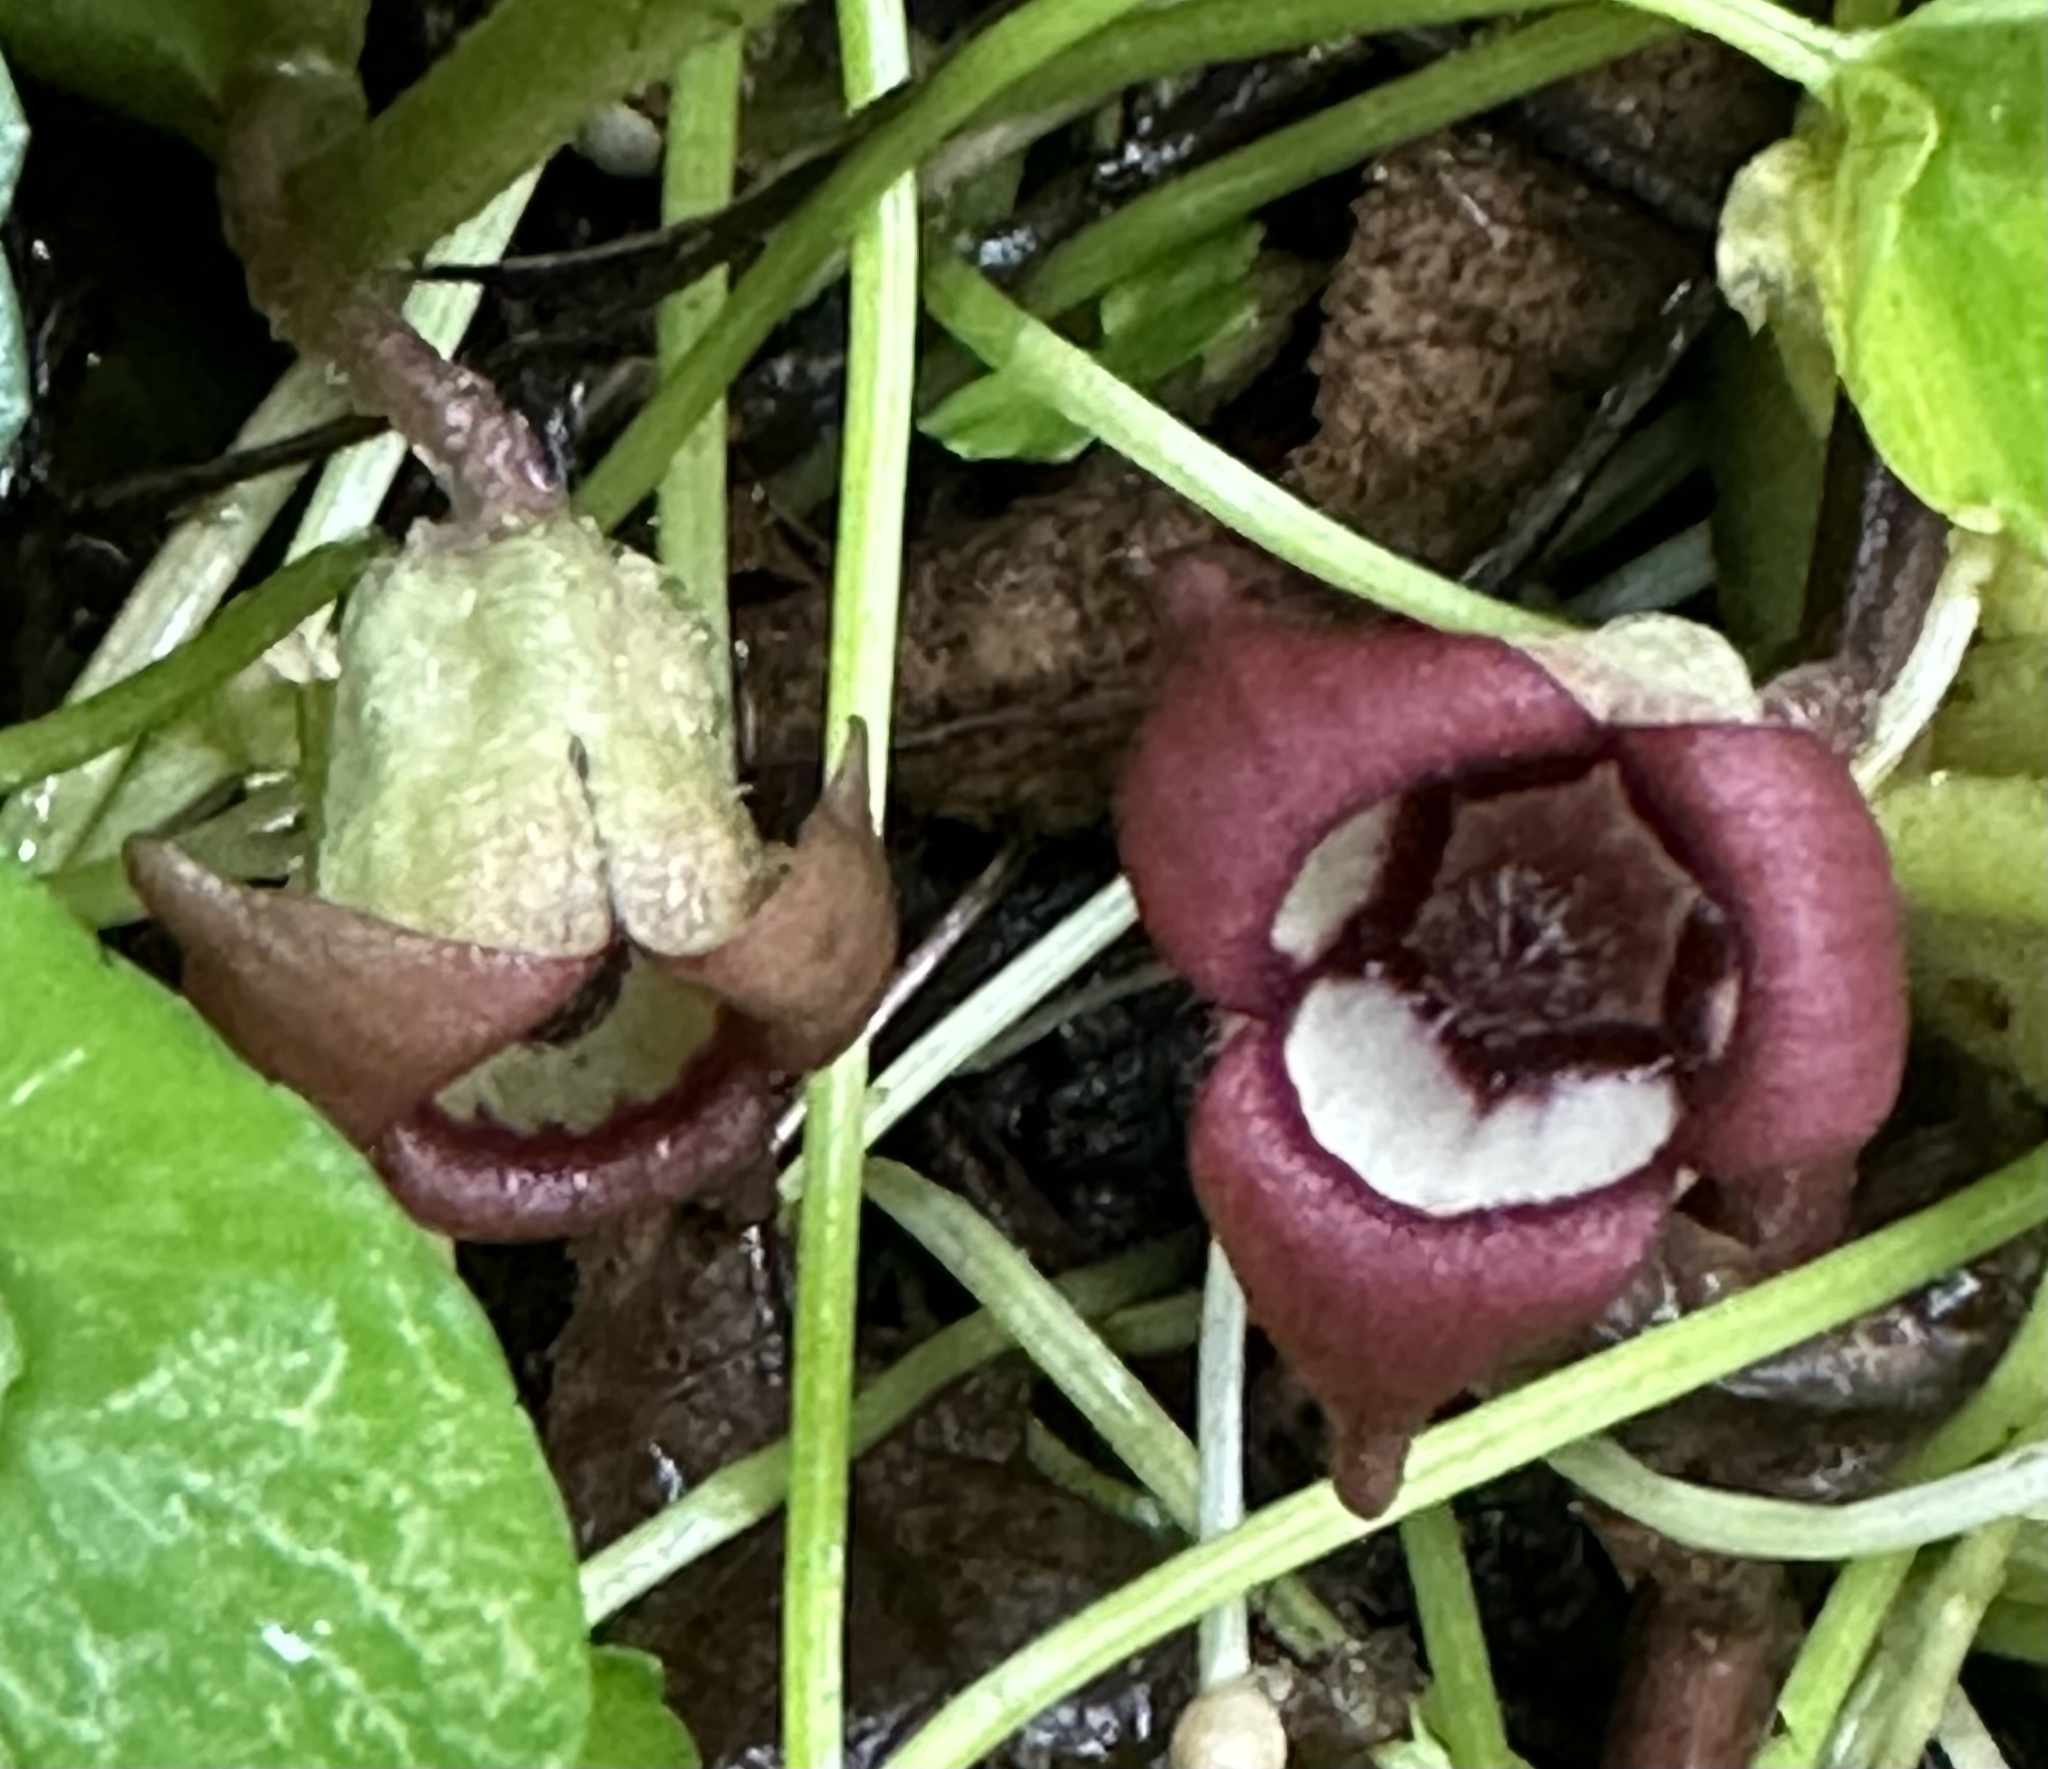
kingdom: Plantae
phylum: Tracheophyta
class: Magnoliopsida
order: Piperales
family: Aristolochiaceae
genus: Asarum
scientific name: Asarum canadense
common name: Wild ginger
